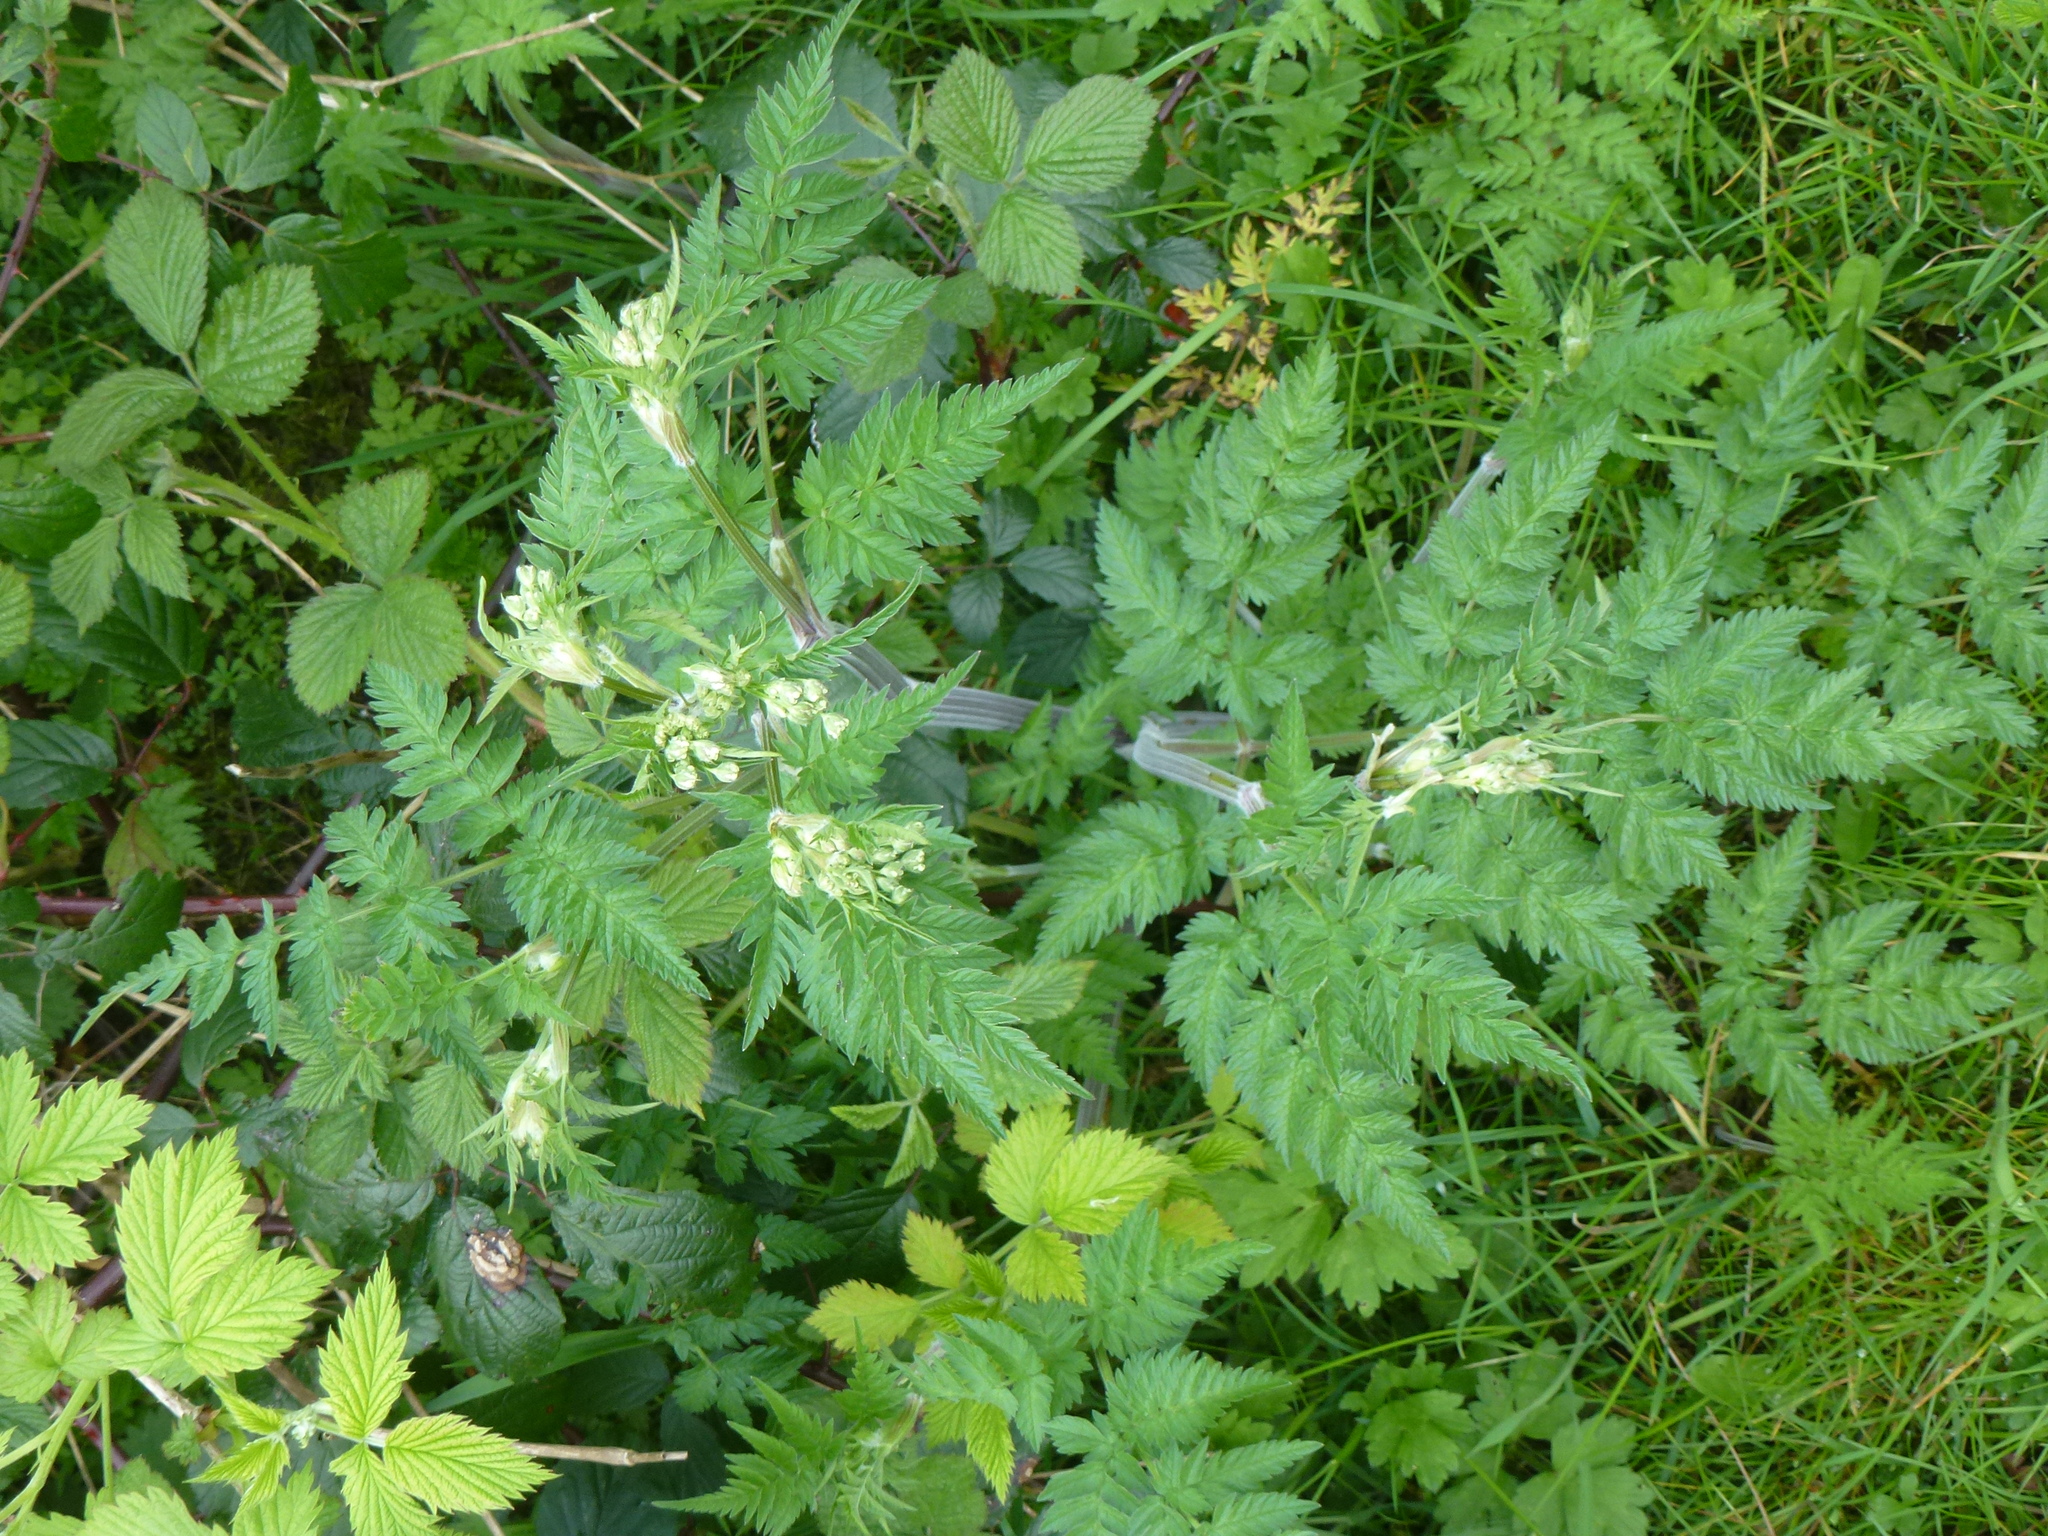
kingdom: Plantae
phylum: Tracheophyta
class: Magnoliopsida
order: Apiales
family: Apiaceae
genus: Anthriscus
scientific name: Anthriscus sylvestris
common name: Cow parsley
